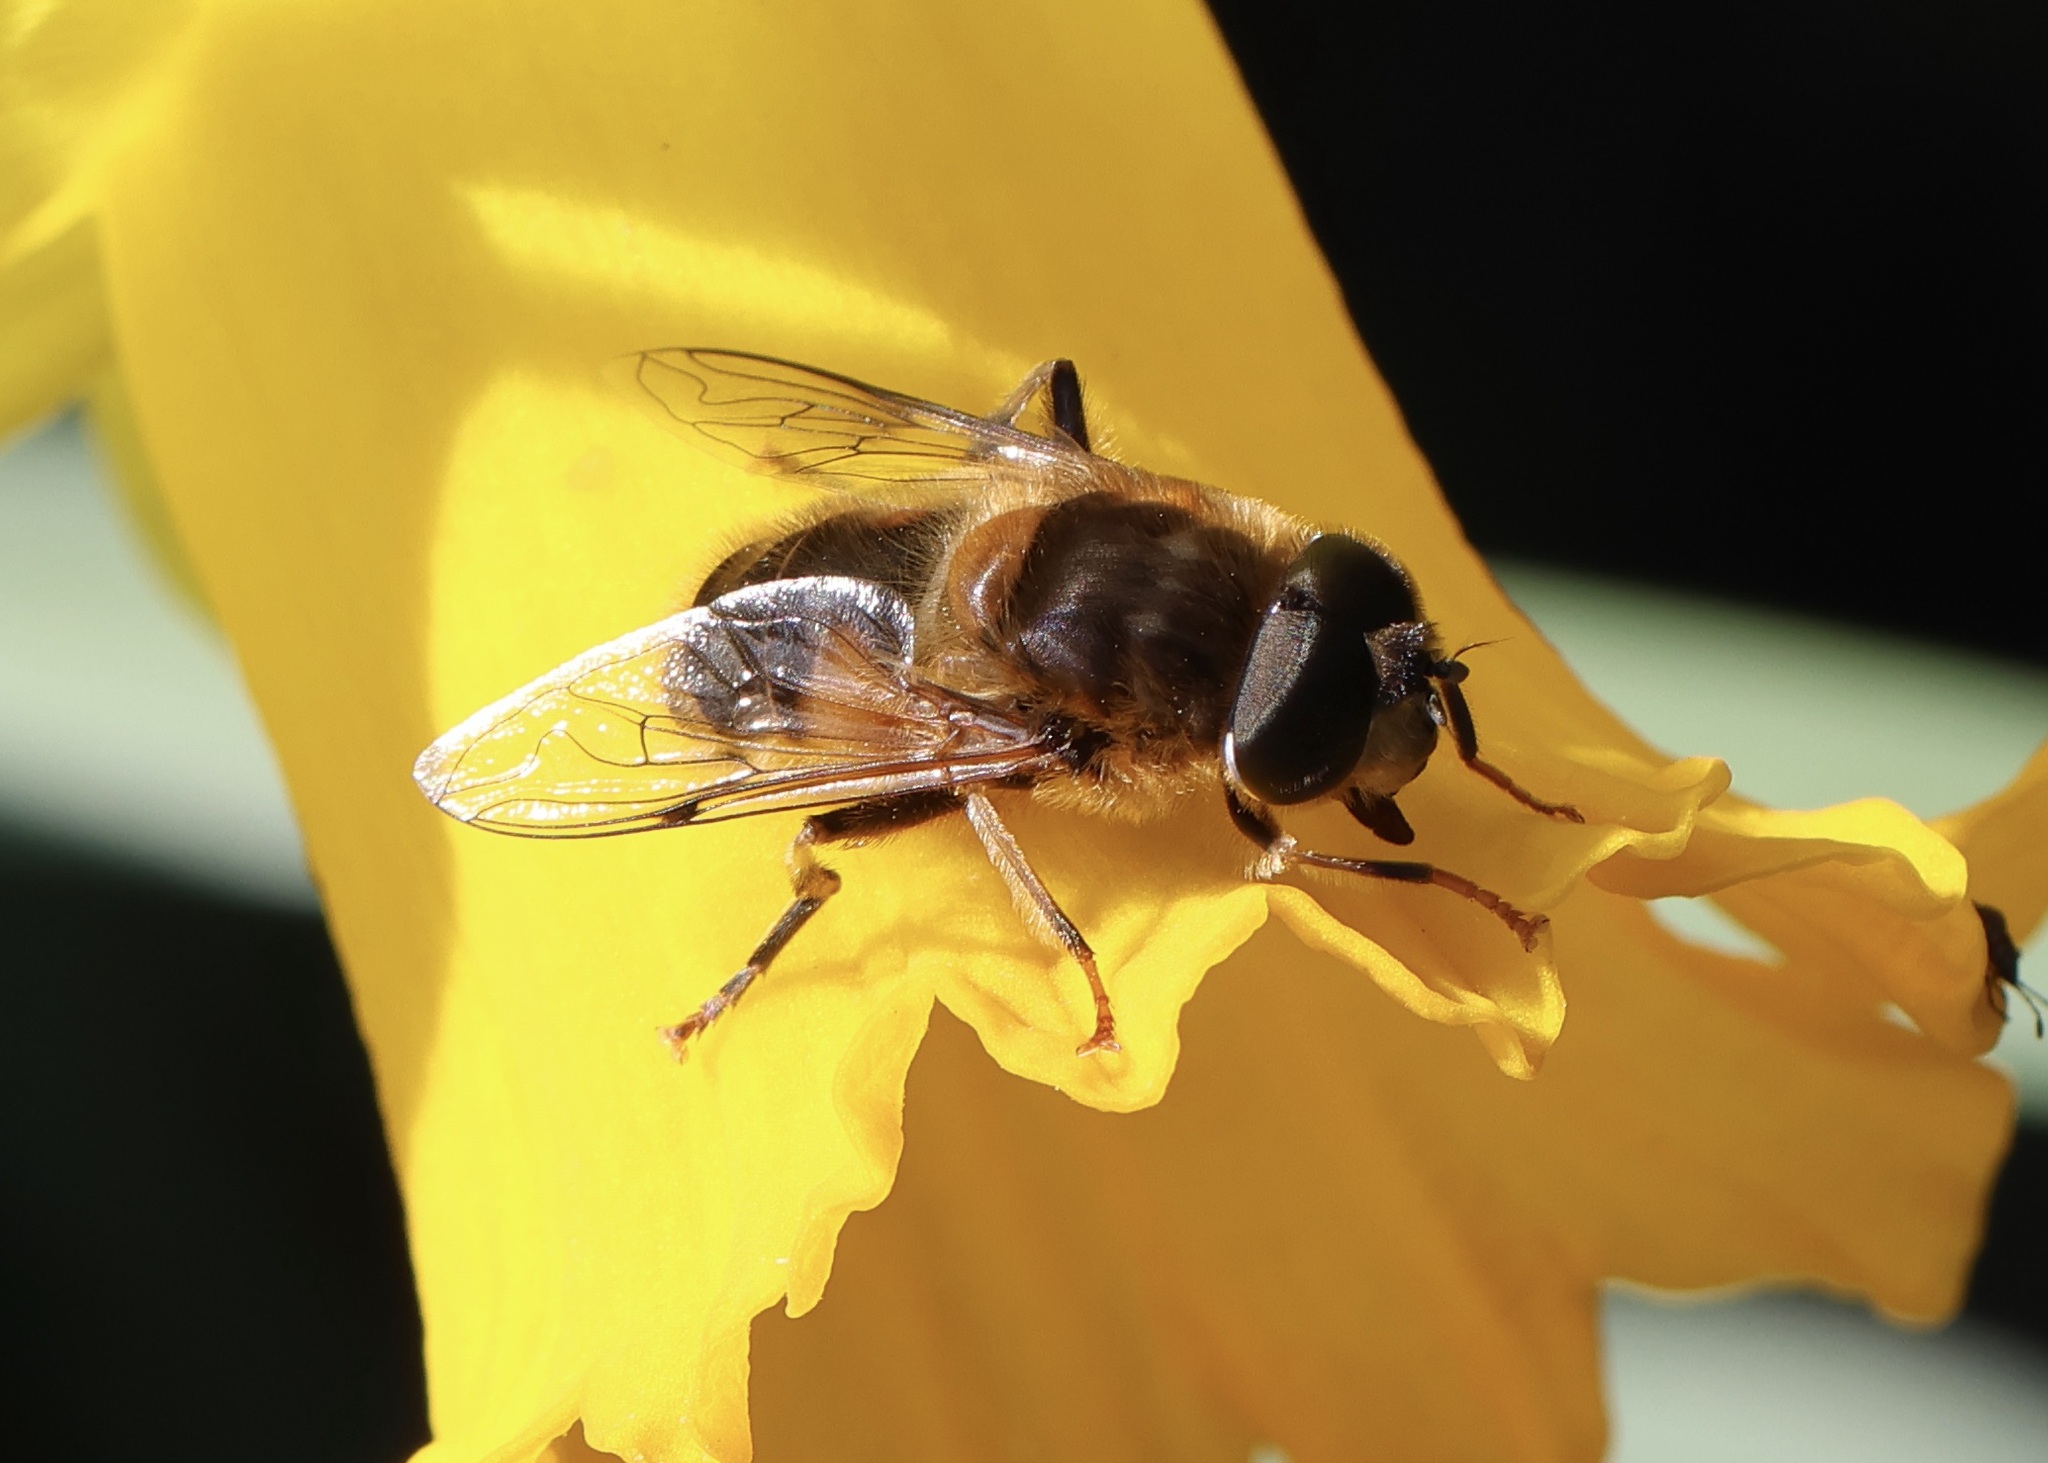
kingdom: Animalia
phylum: Arthropoda
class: Insecta
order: Diptera
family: Syrphidae
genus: Eristalis
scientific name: Eristalis pertinax
